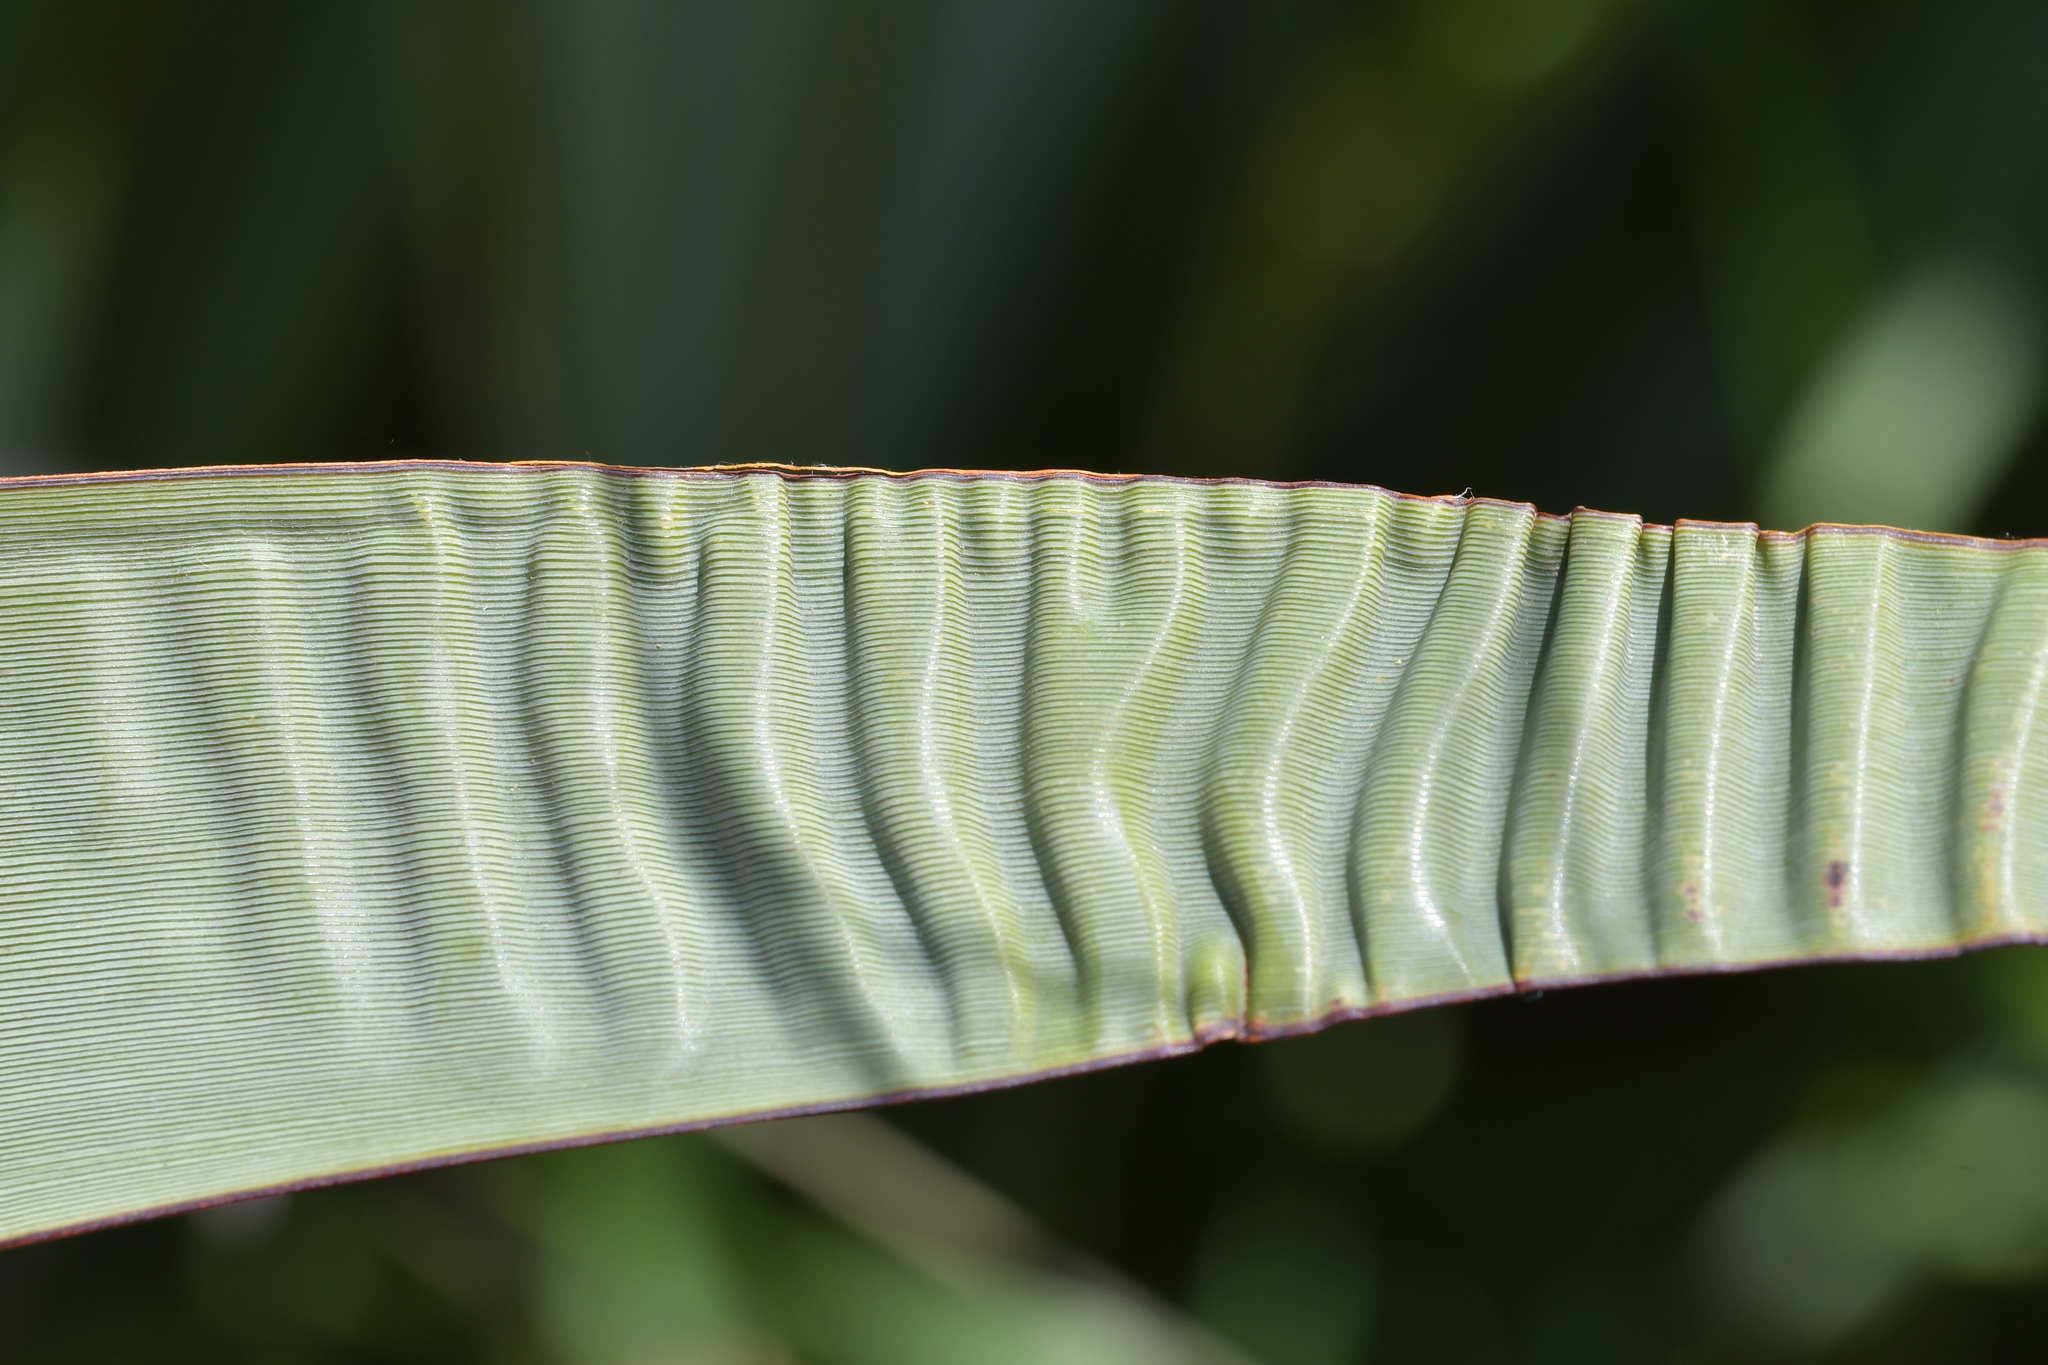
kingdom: Plantae
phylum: Tracheophyta
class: Liliopsida
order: Asparagales
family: Asphodelaceae
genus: Phormium
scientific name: Phormium tenax
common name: New zealand flax
